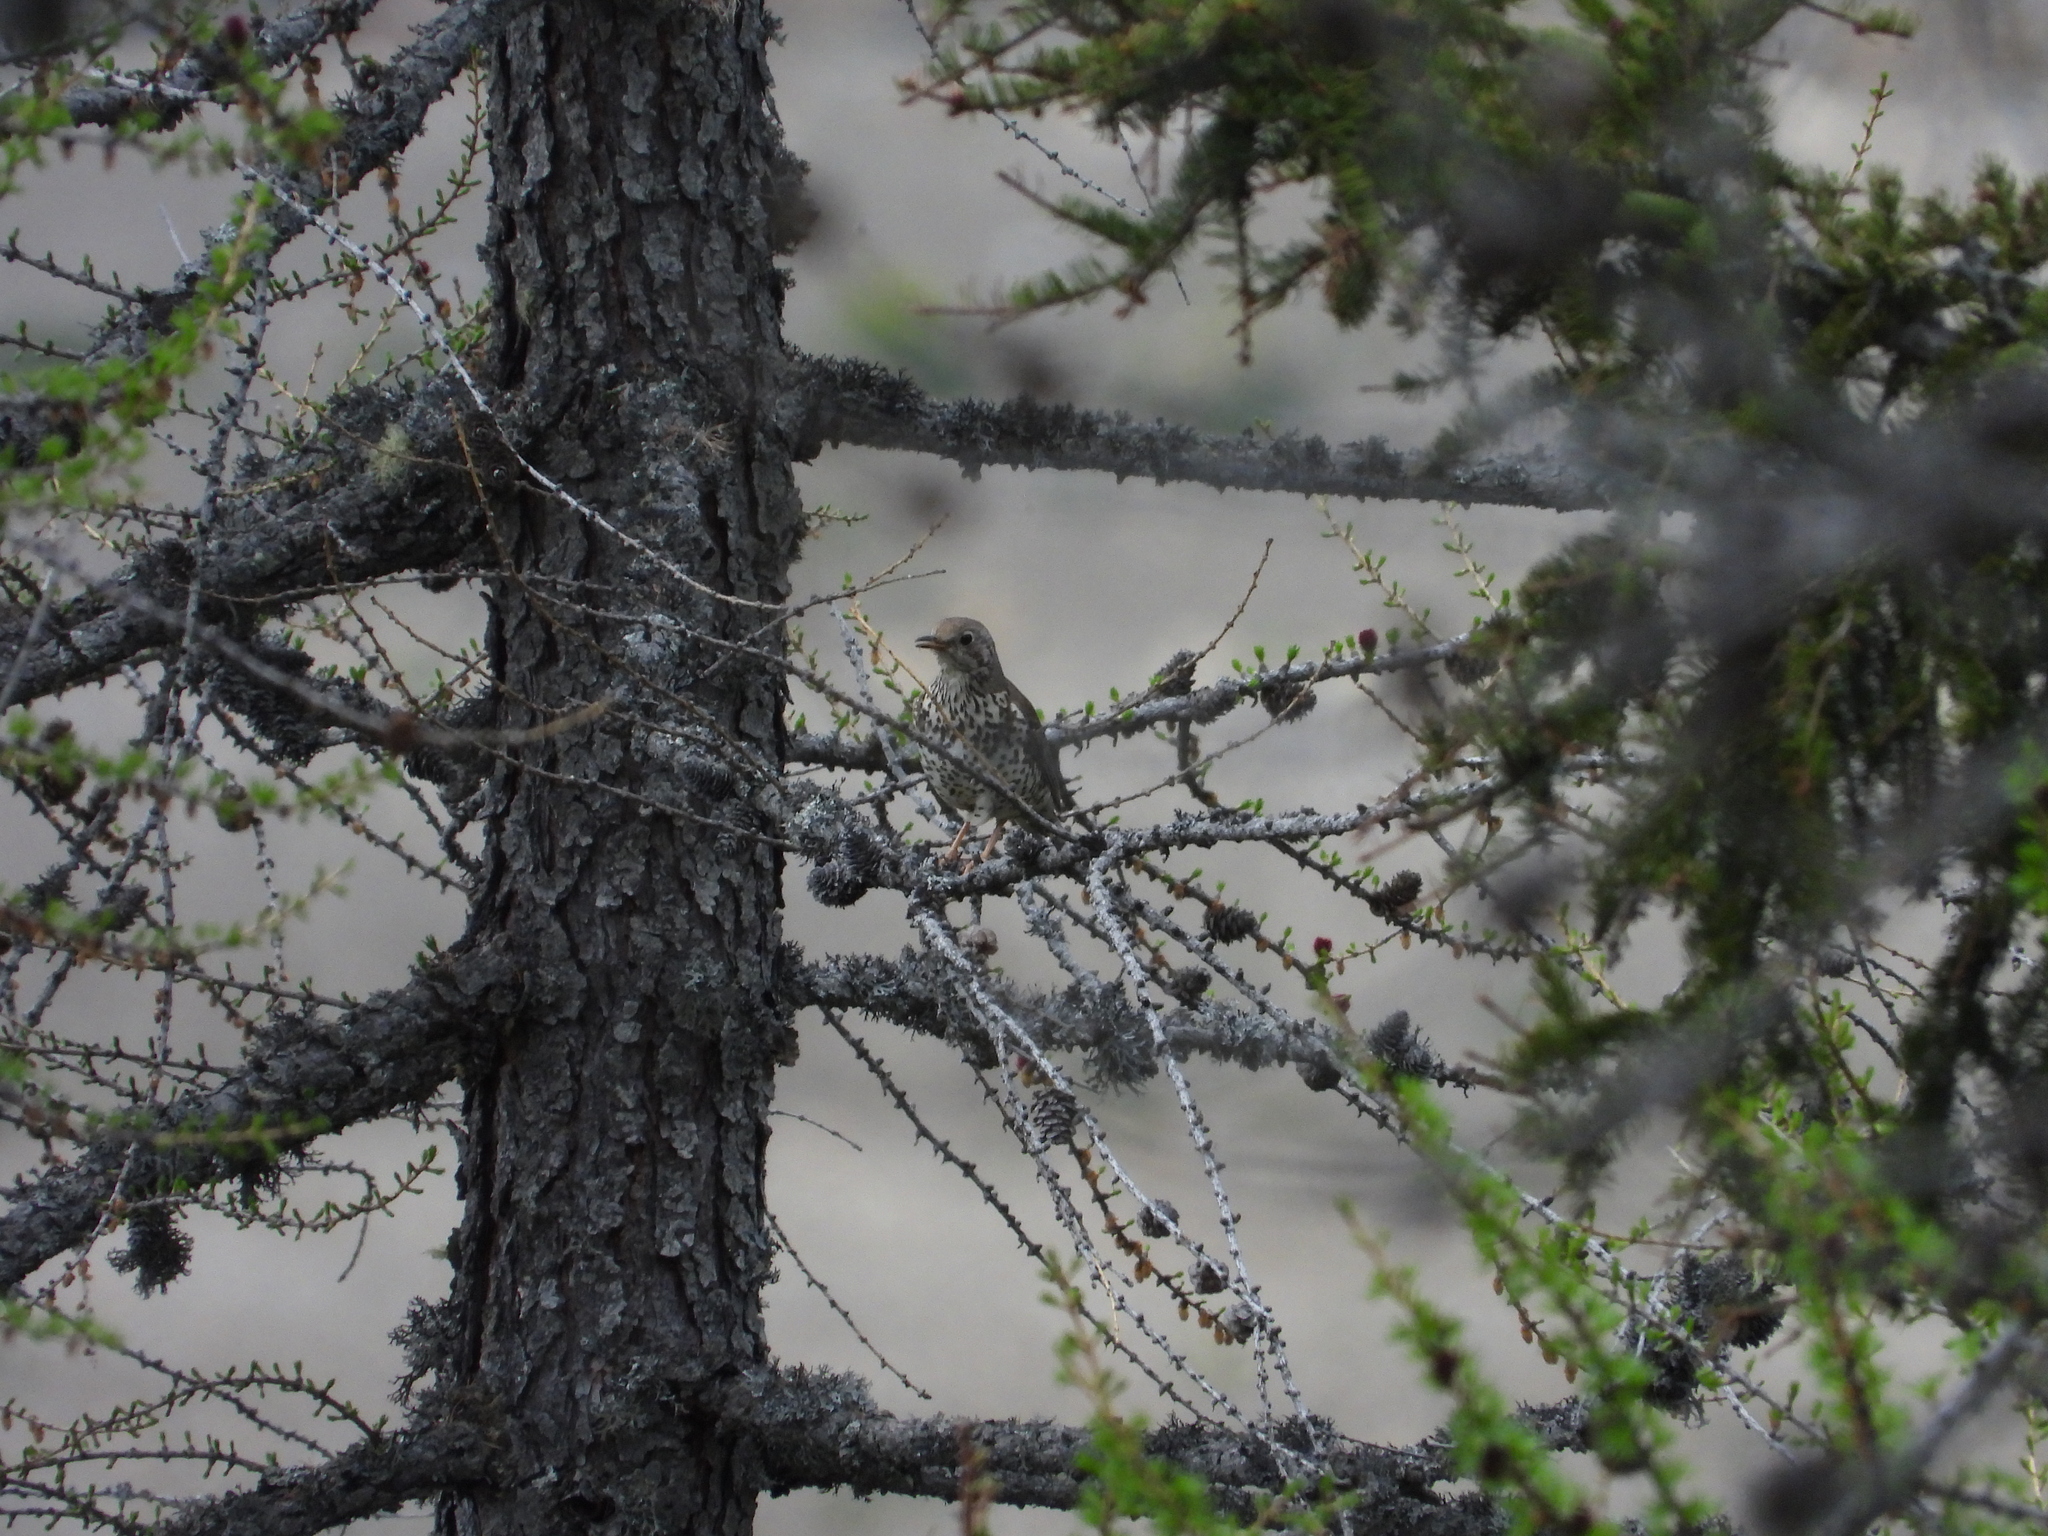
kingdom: Animalia
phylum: Chordata
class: Aves
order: Passeriformes
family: Turdidae
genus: Turdus
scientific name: Turdus viscivorus
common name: Mistle thrush
